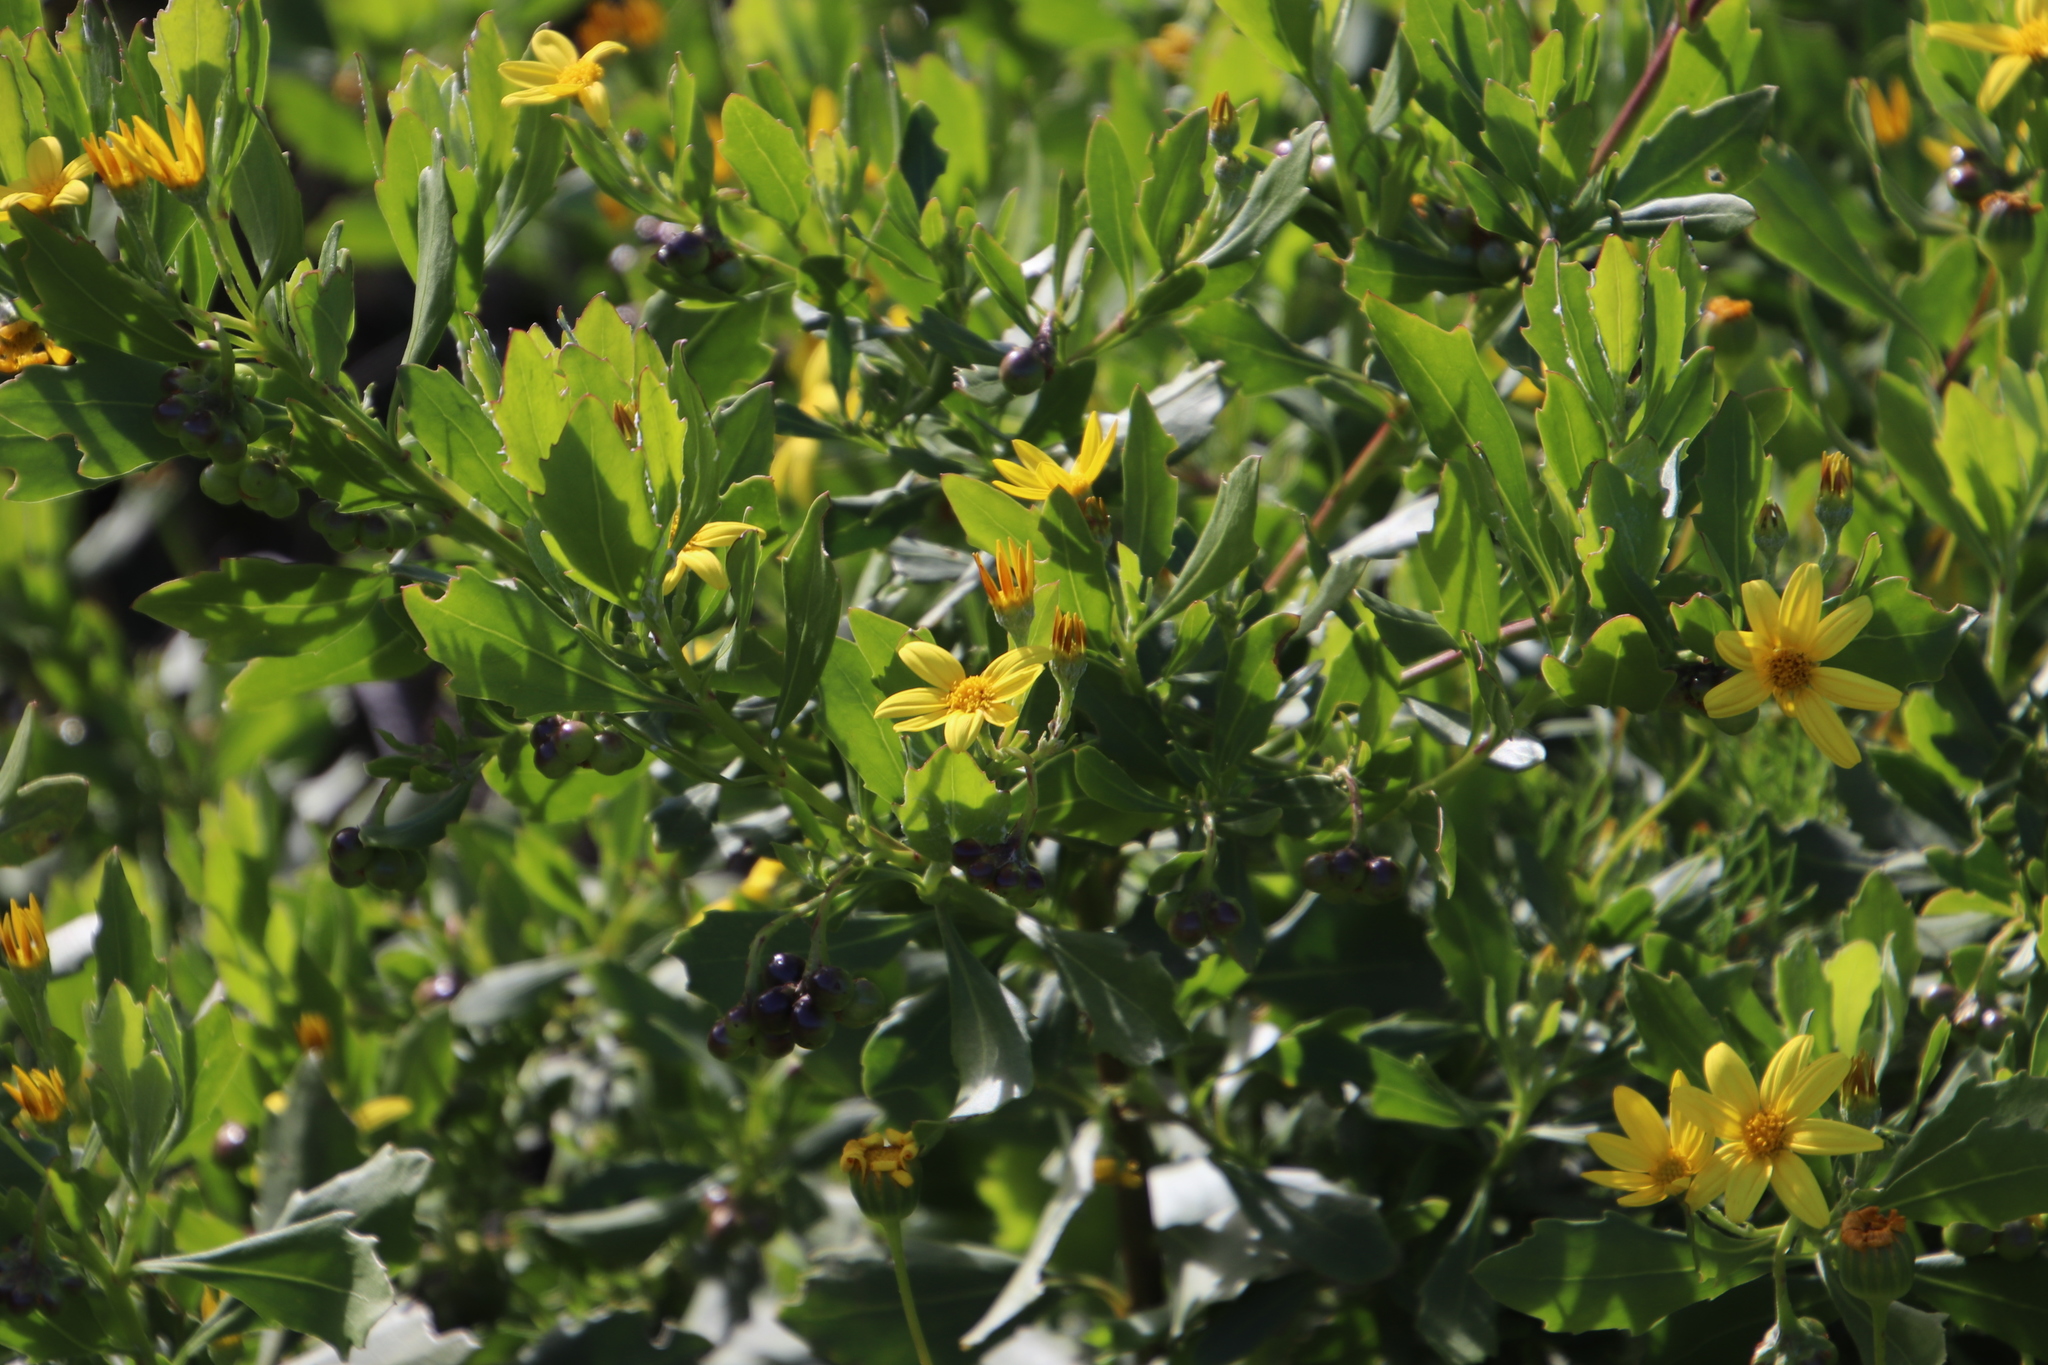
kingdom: Plantae
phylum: Tracheophyta
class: Magnoliopsida
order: Asterales
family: Asteraceae
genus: Osteospermum
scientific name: Osteospermum moniliferum
